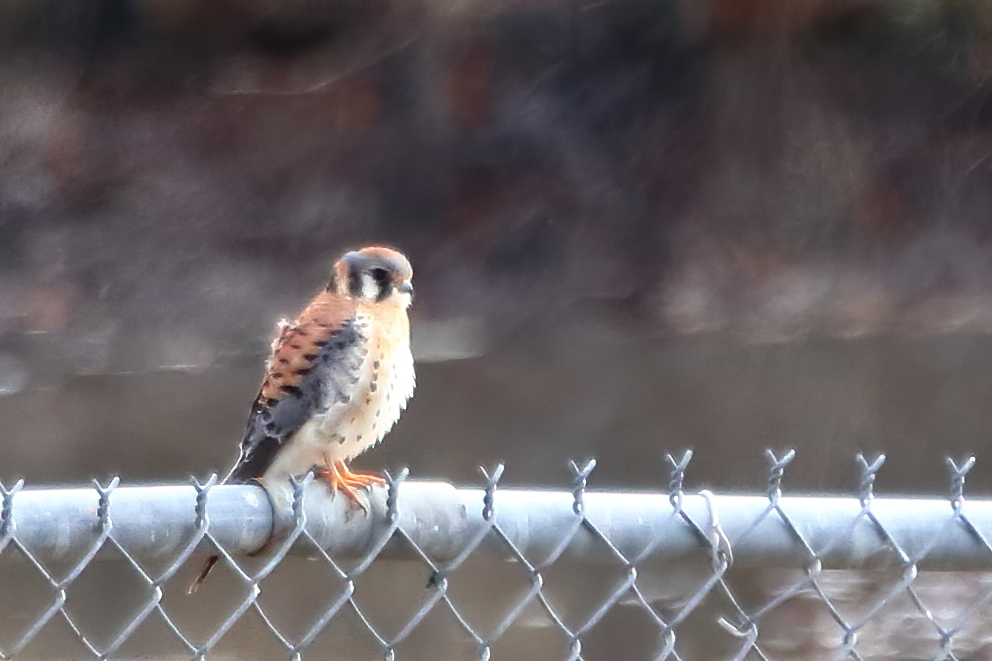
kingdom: Animalia
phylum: Chordata
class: Aves
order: Falconiformes
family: Falconidae
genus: Falco
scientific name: Falco sparverius
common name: American kestrel
